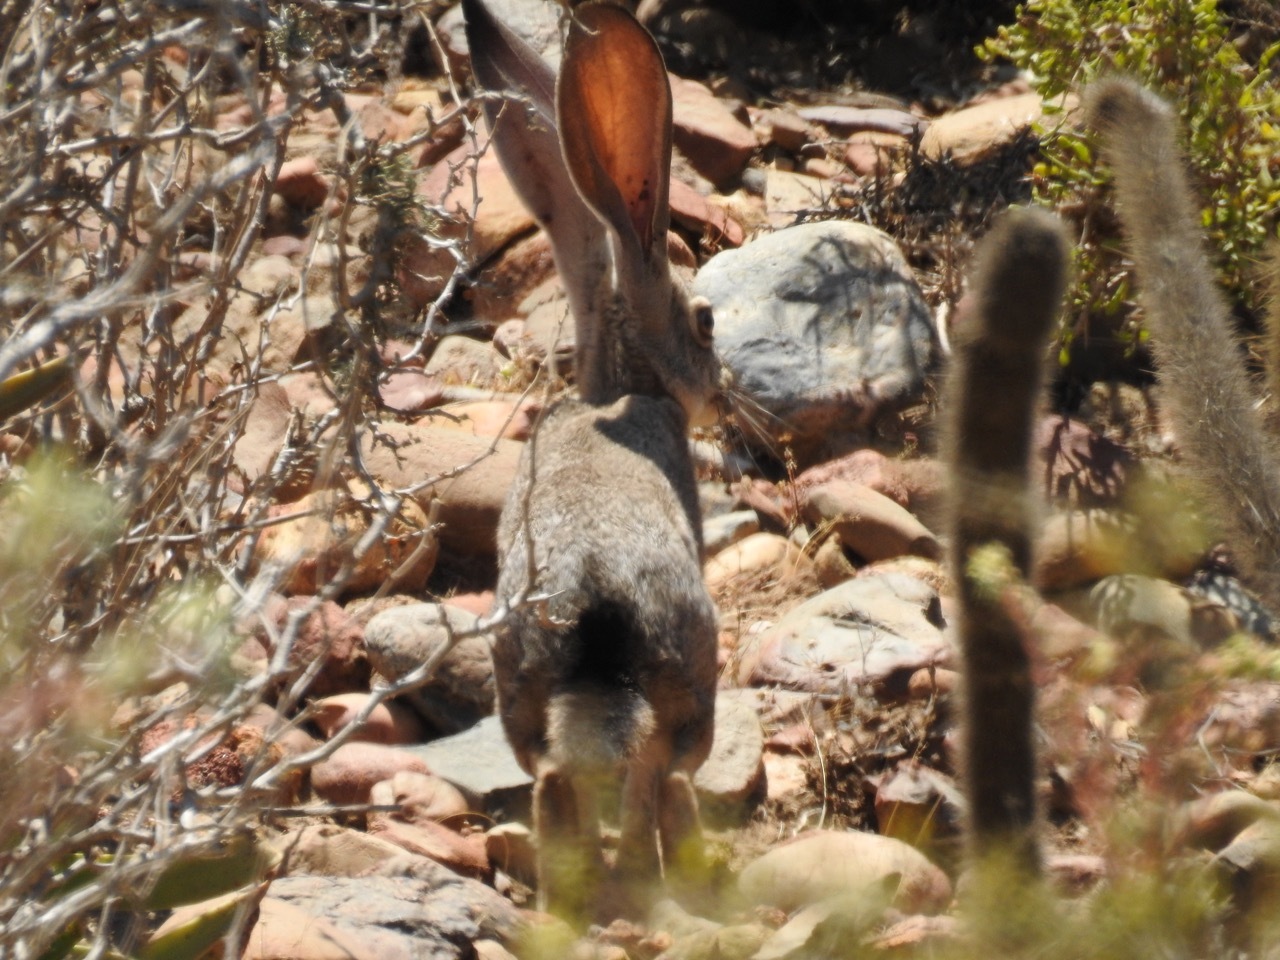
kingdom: Animalia
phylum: Chordata
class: Mammalia
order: Lagomorpha
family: Leporidae
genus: Lepus
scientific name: Lepus californicus
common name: Black-tailed jackrabbit
